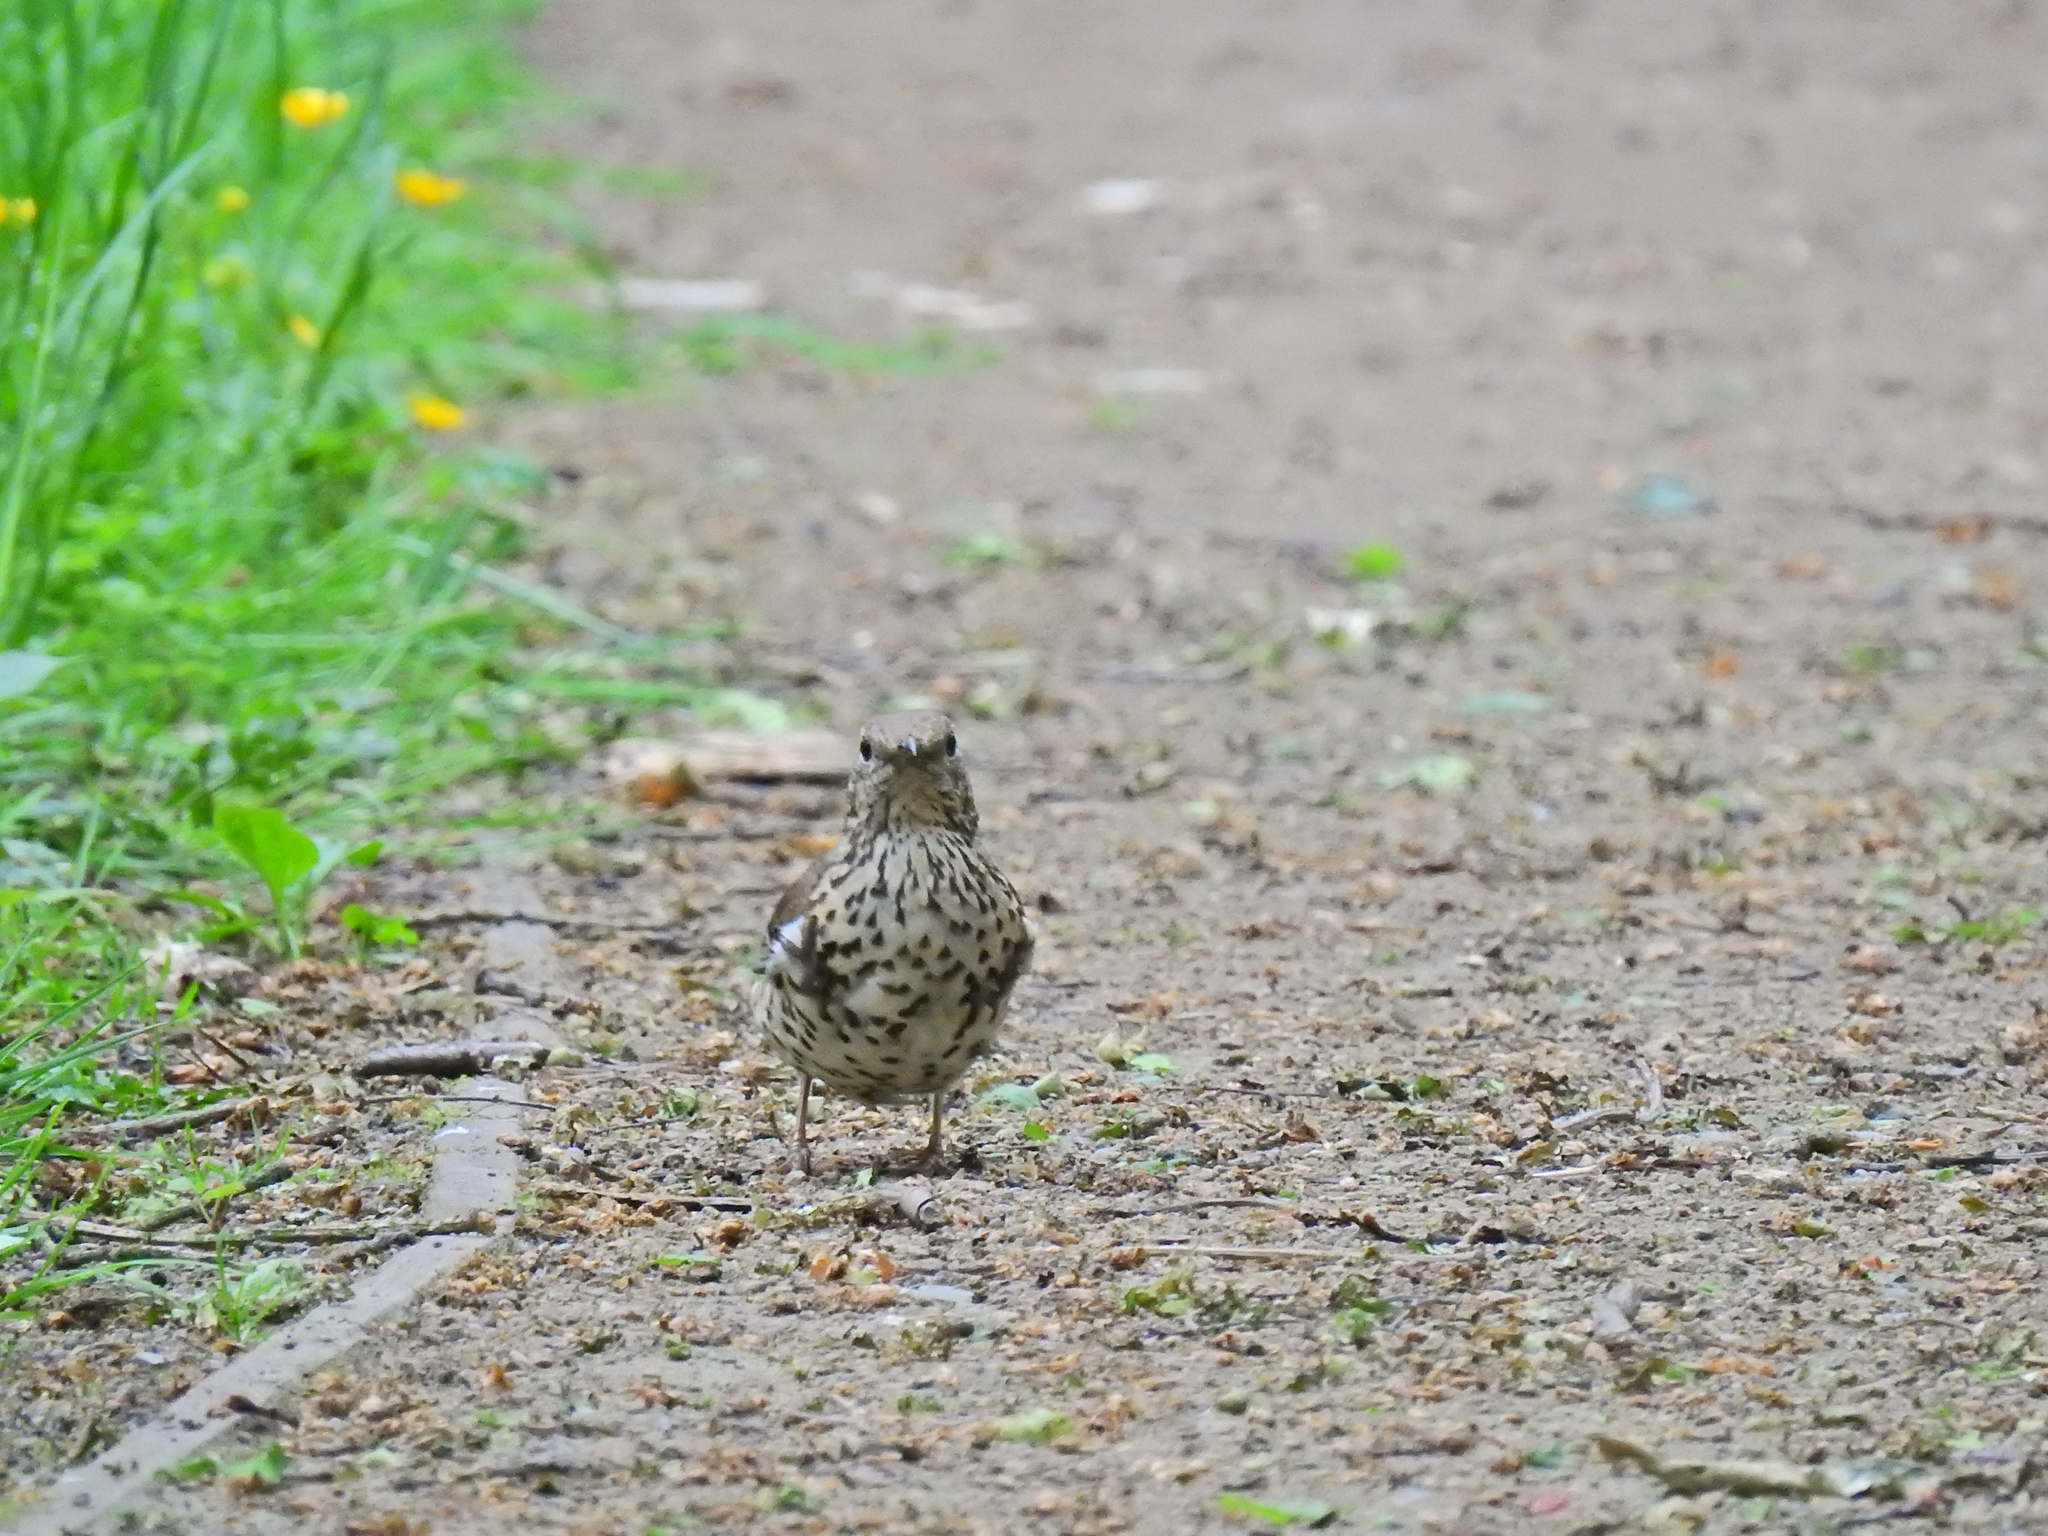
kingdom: Animalia
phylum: Chordata
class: Aves
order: Passeriformes
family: Turdidae
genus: Turdus
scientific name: Turdus viscivorus
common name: Mistle thrush
